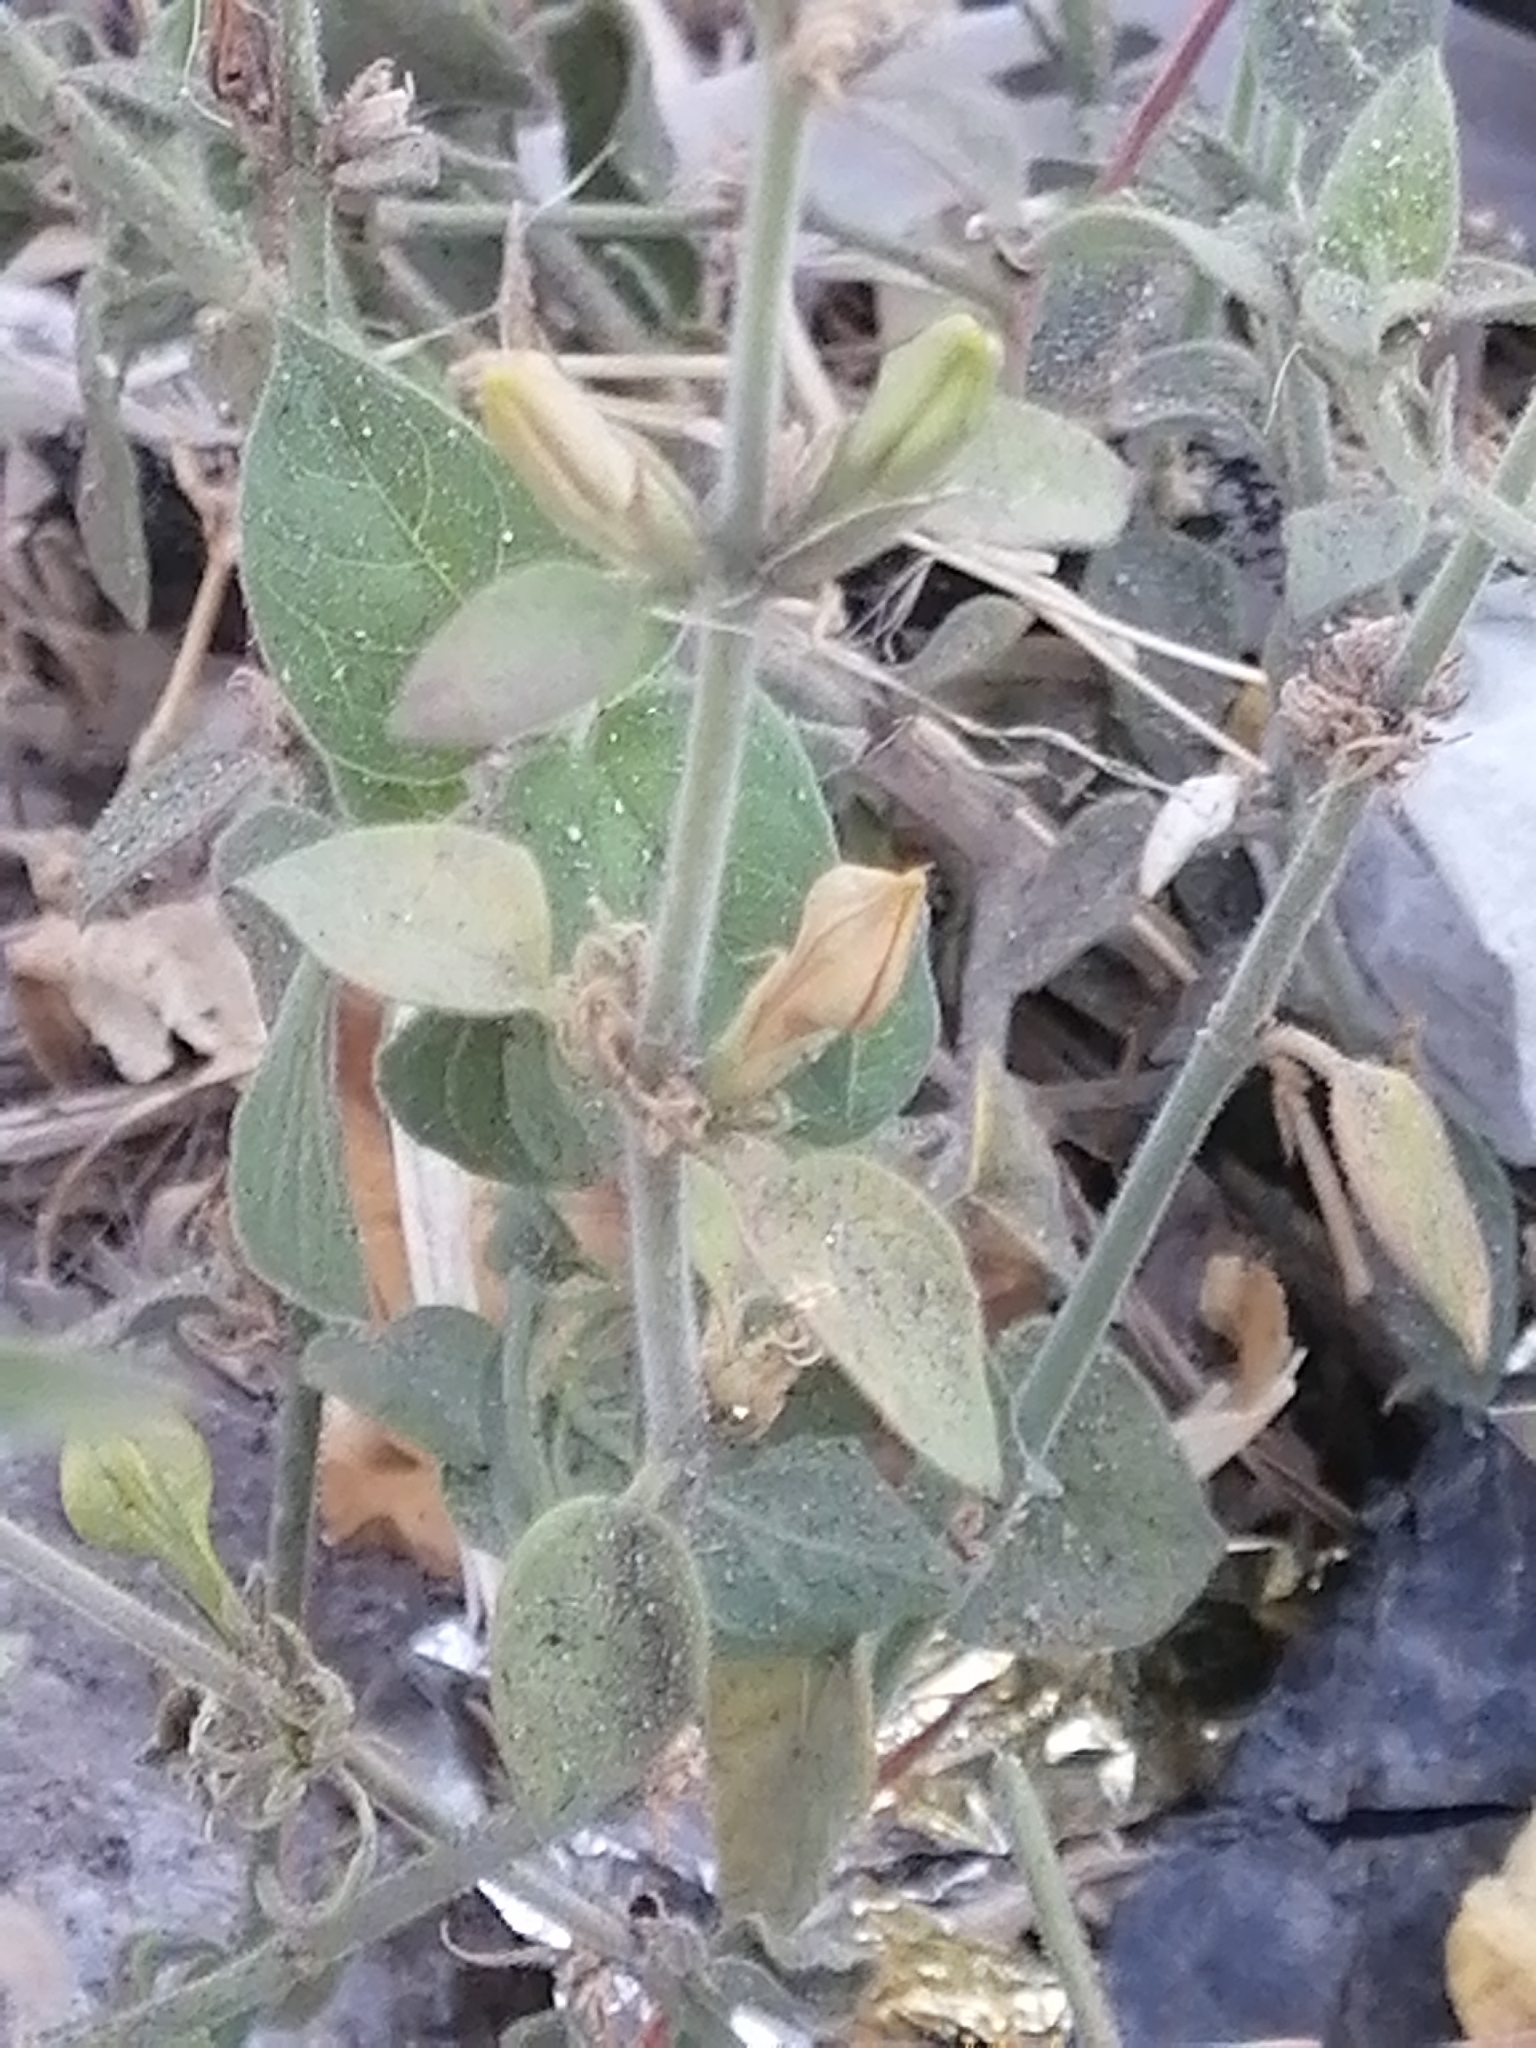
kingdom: Plantae
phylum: Tracheophyta
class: Magnoliopsida
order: Lamiales
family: Acanthaceae
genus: Carlowrightia
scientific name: Carlowrightia neesiana
